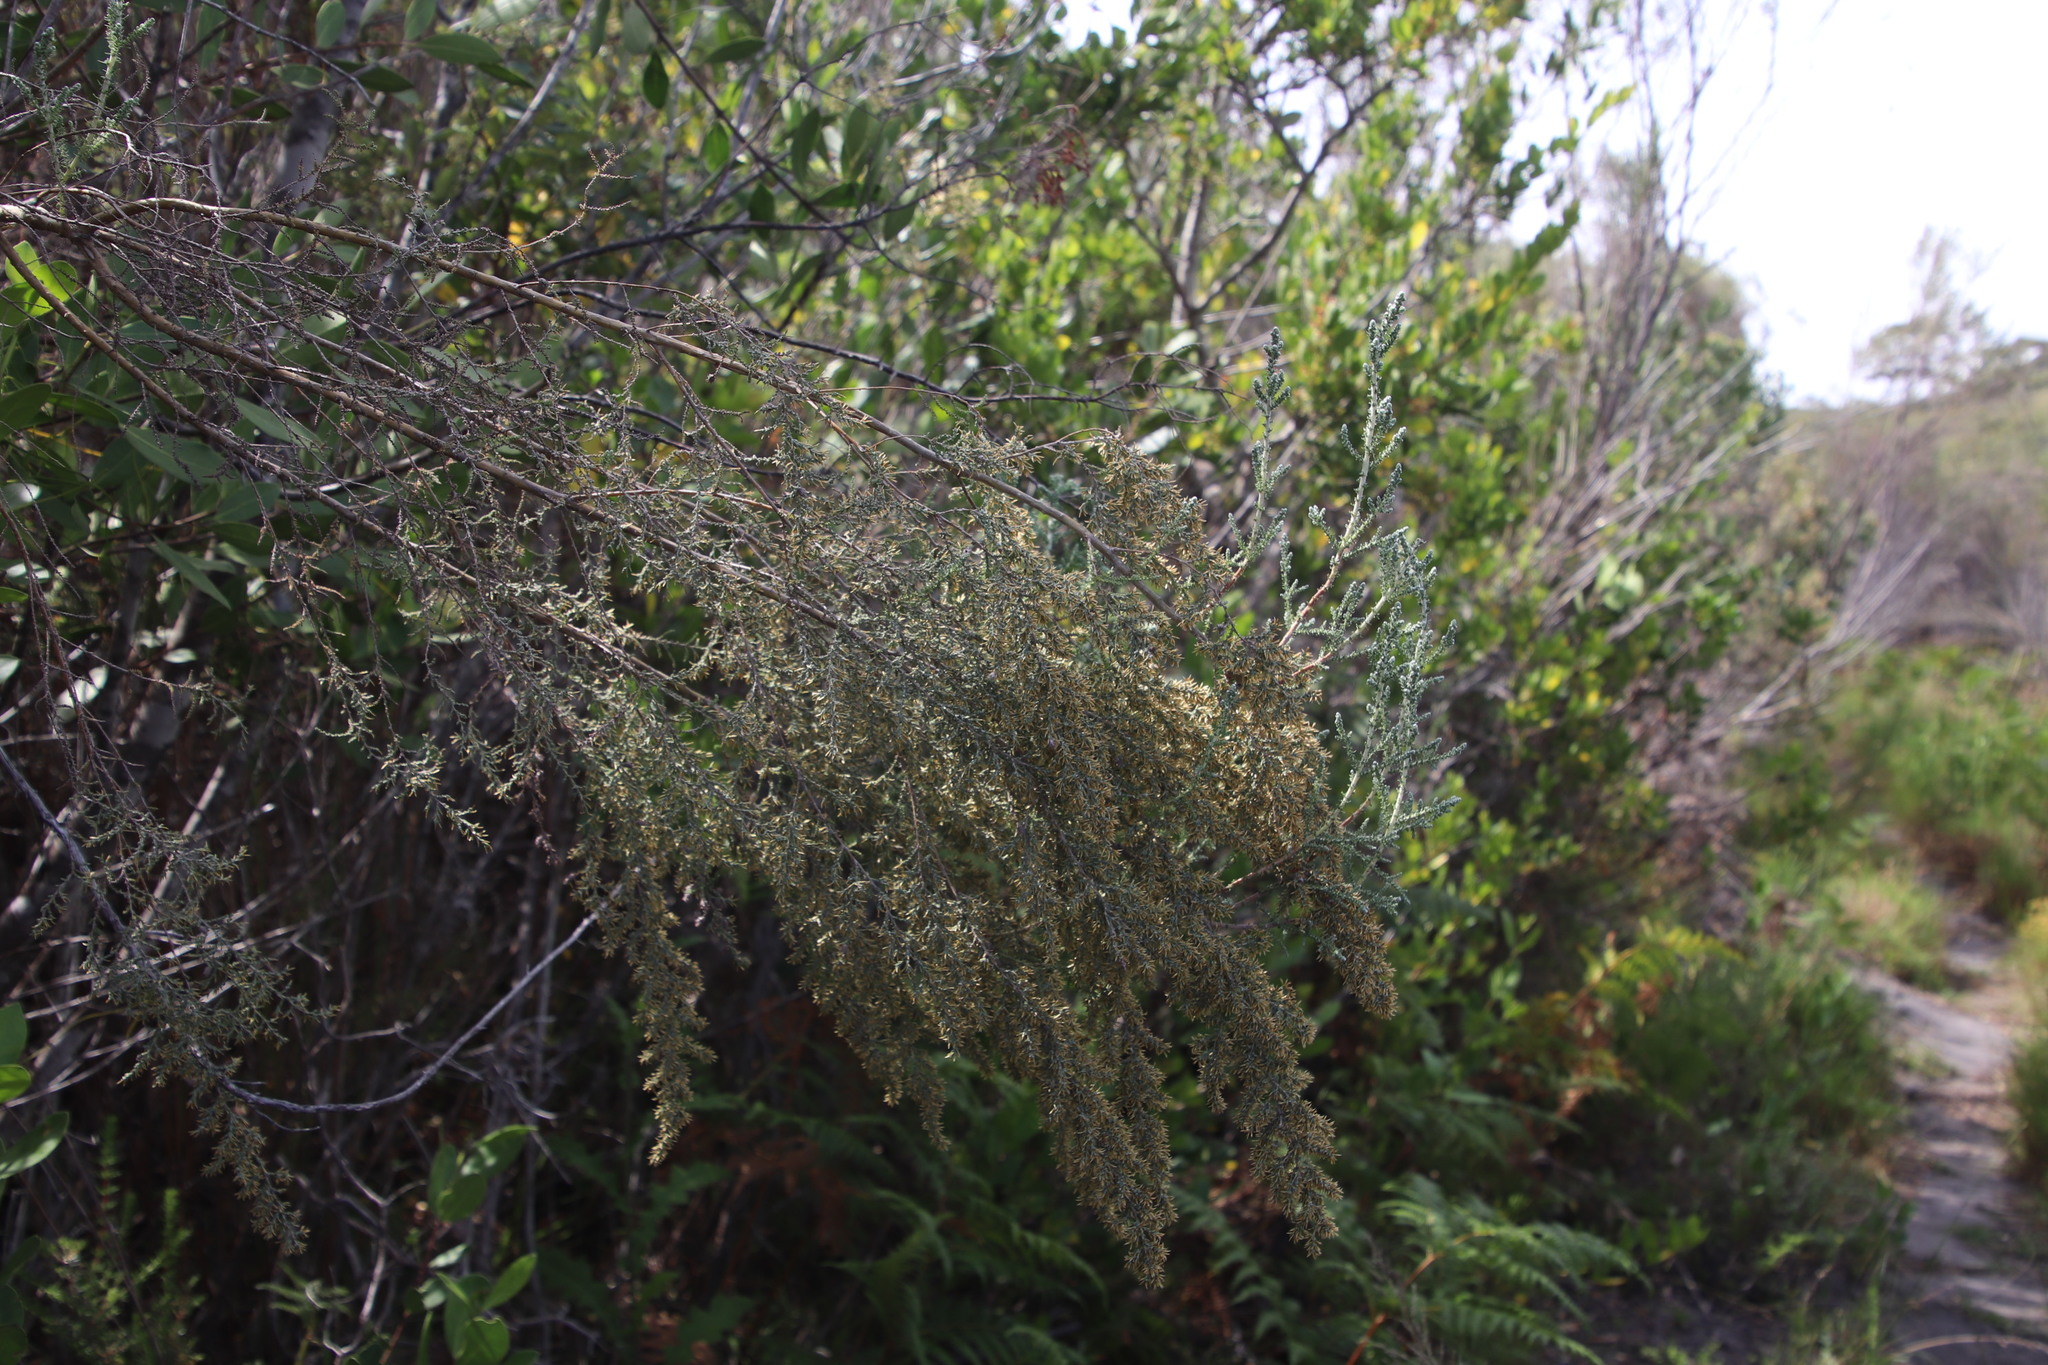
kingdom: Plantae
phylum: Tracheophyta
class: Magnoliopsida
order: Asterales
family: Asteraceae
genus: Seriphium
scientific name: Seriphium plumosum
